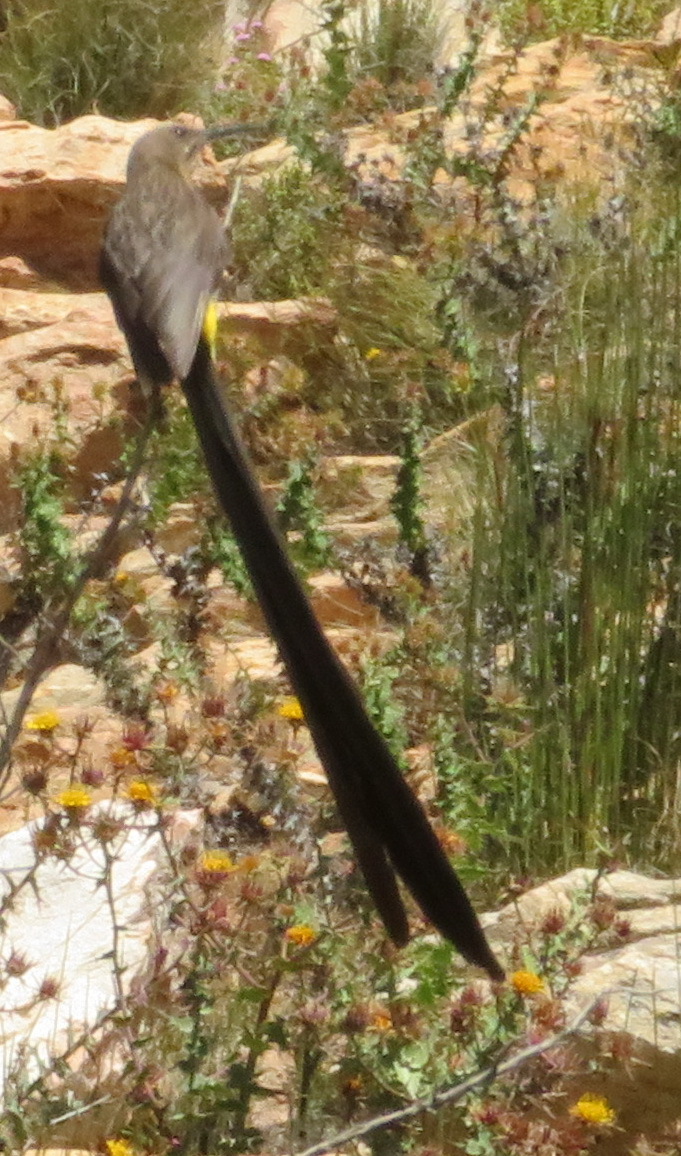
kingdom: Animalia
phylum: Chordata
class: Aves
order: Passeriformes
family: Promeropidae
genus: Promerops
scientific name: Promerops cafer
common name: Cape sugarbird
